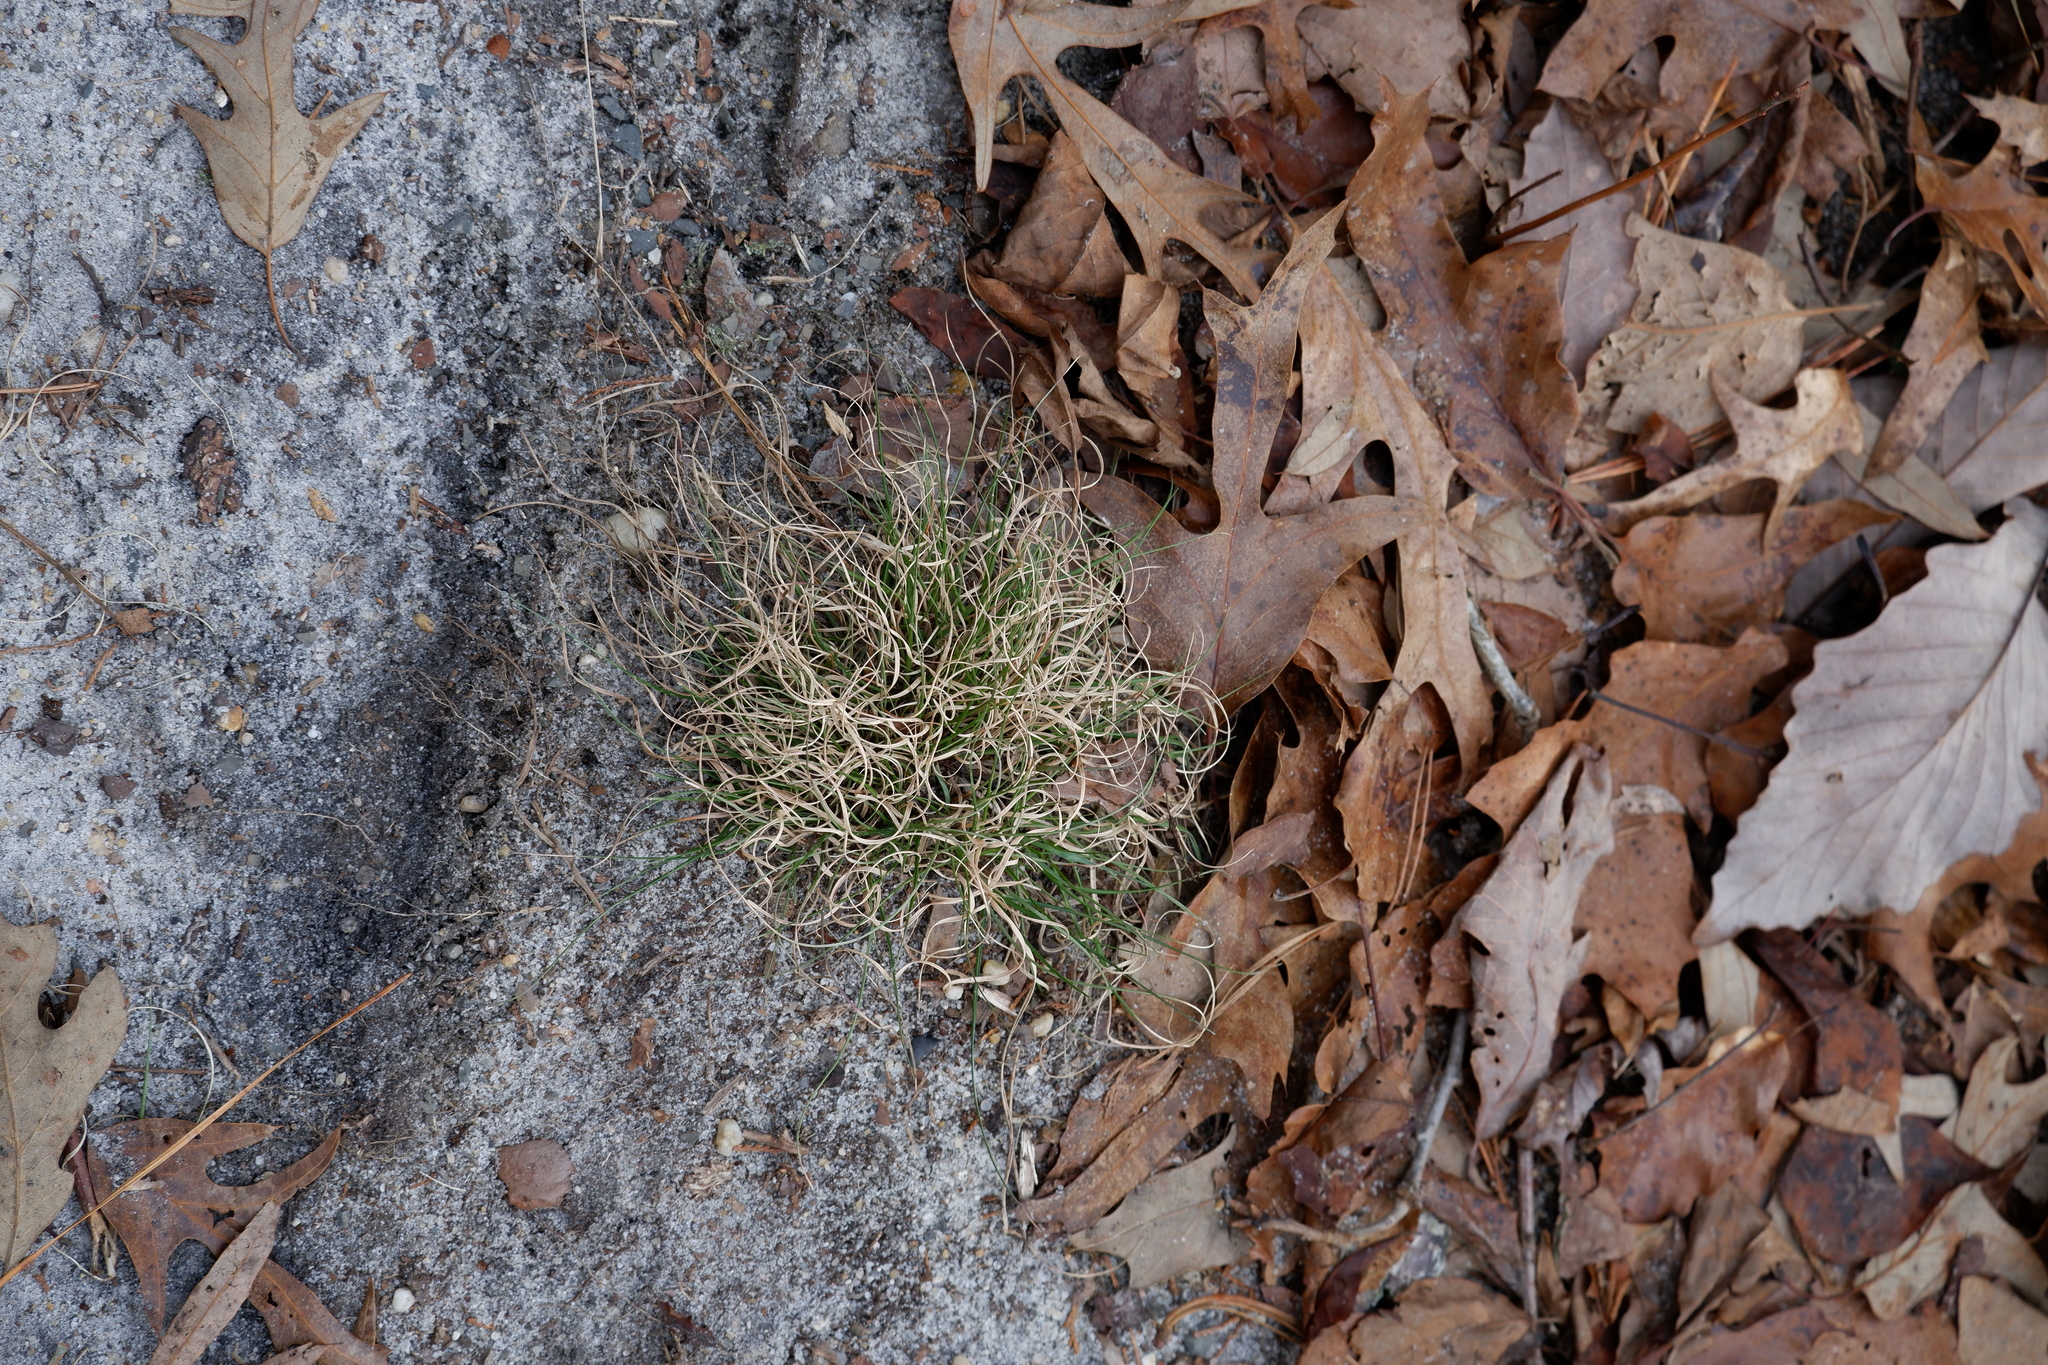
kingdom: Plantae
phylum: Tracheophyta
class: Liliopsida
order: Poales
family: Poaceae
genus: Danthonia
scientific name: Danthonia spicata
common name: Common wild oatgrass
